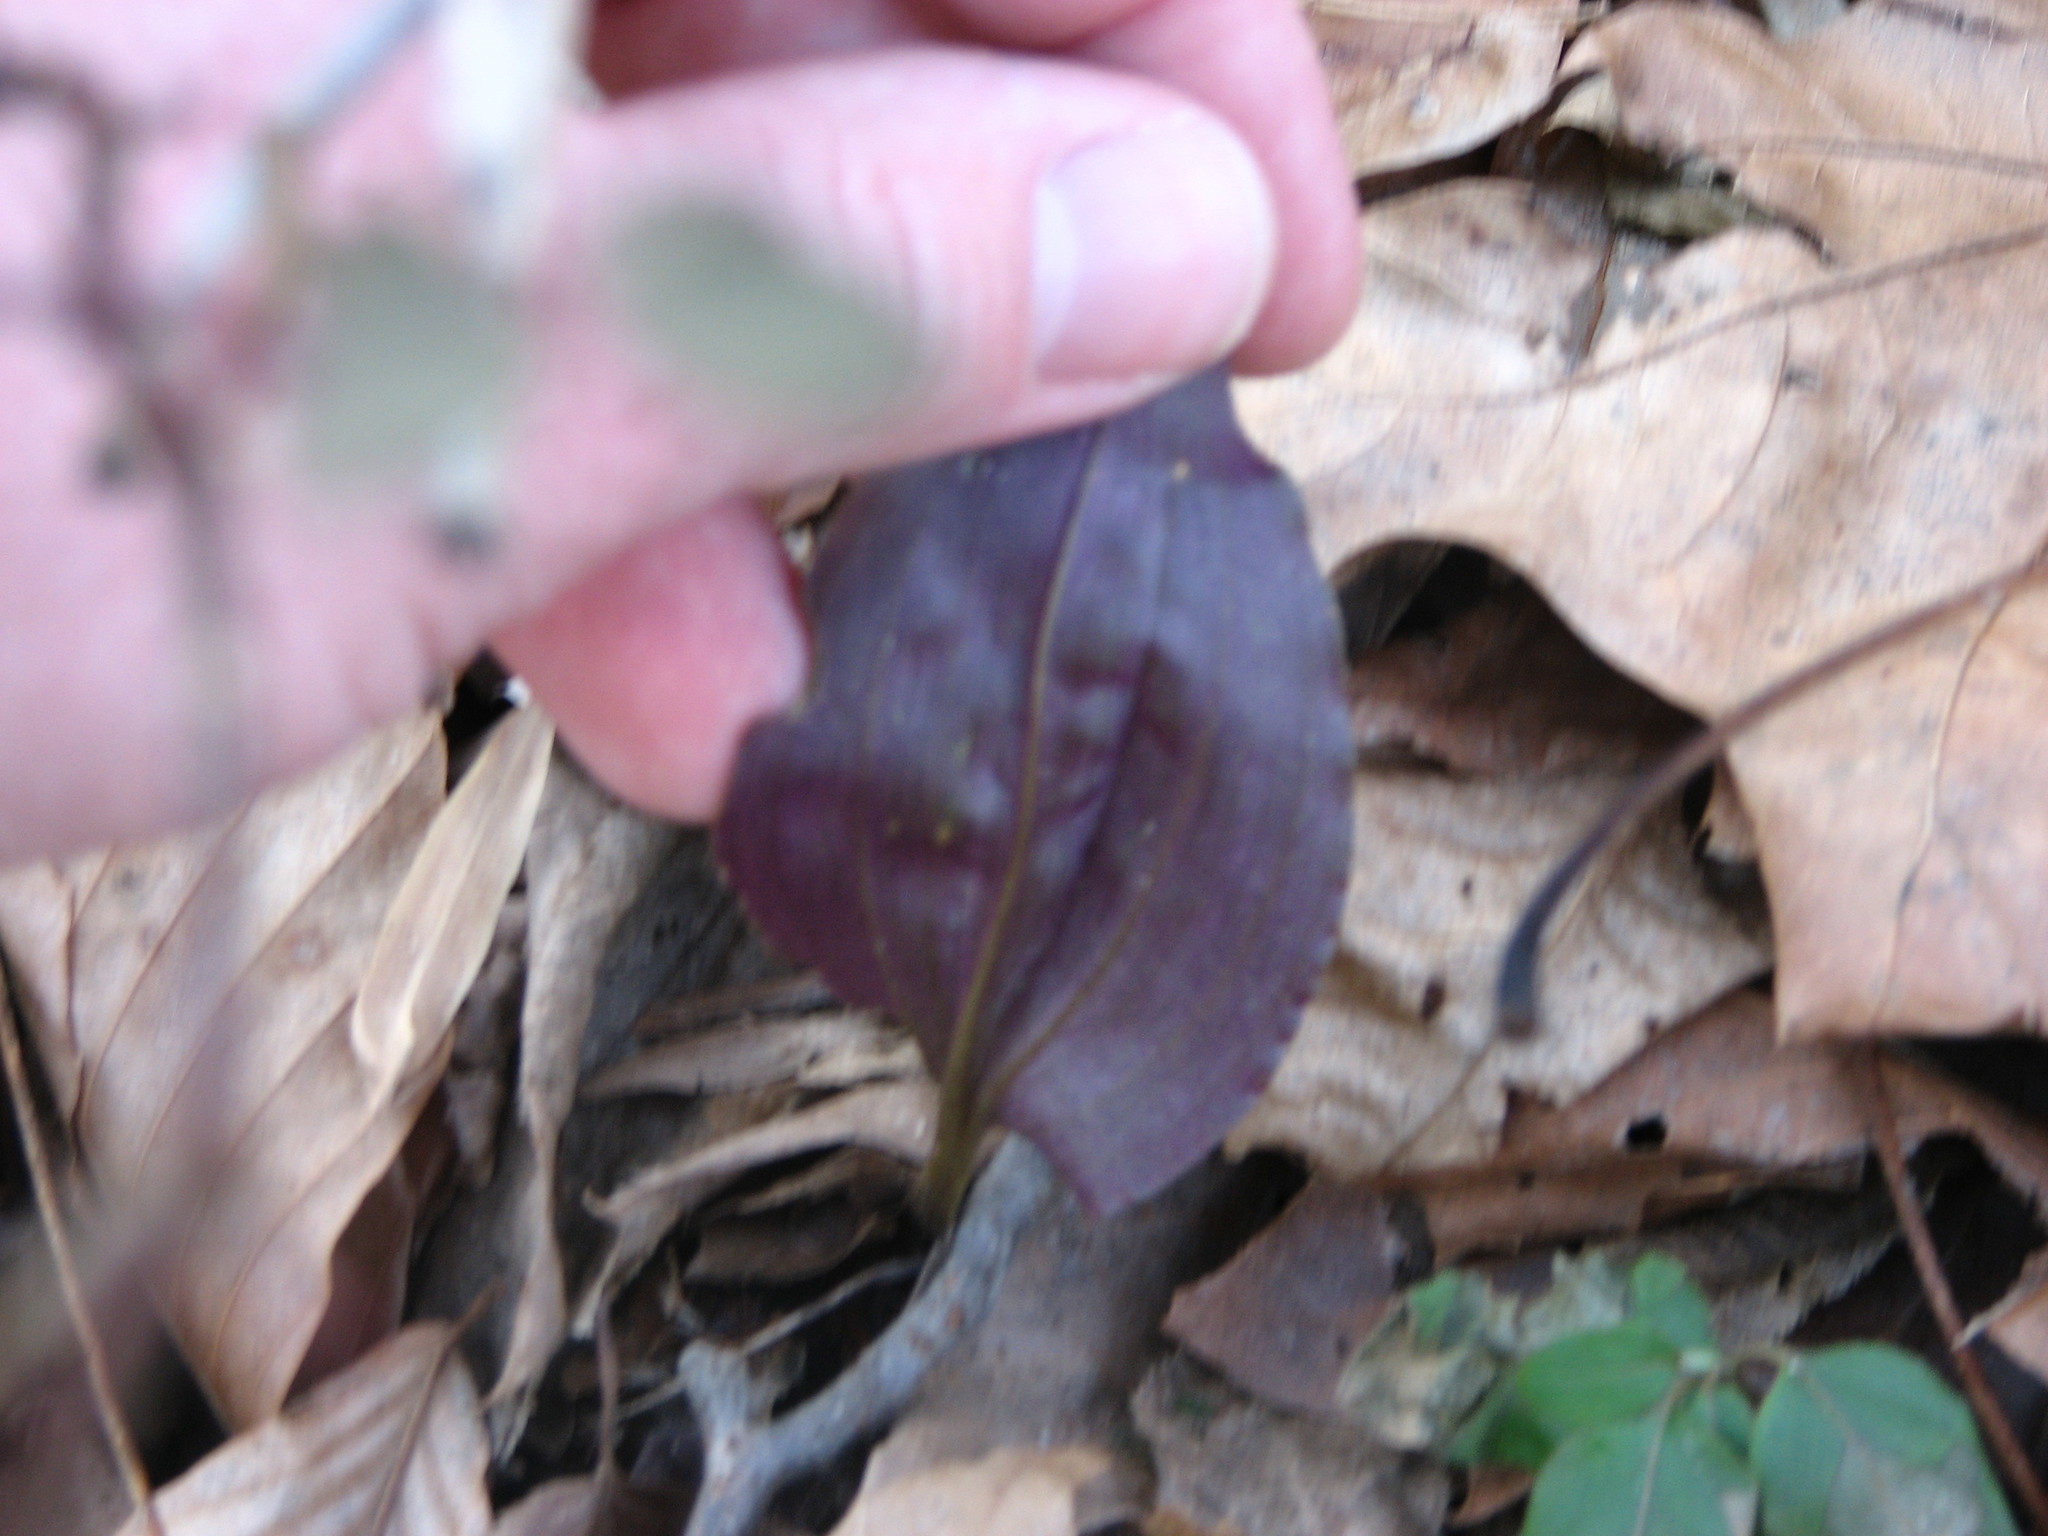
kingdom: Plantae
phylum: Tracheophyta
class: Liliopsida
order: Asparagales
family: Orchidaceae
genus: Tipularia
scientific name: Tipularia discolor
